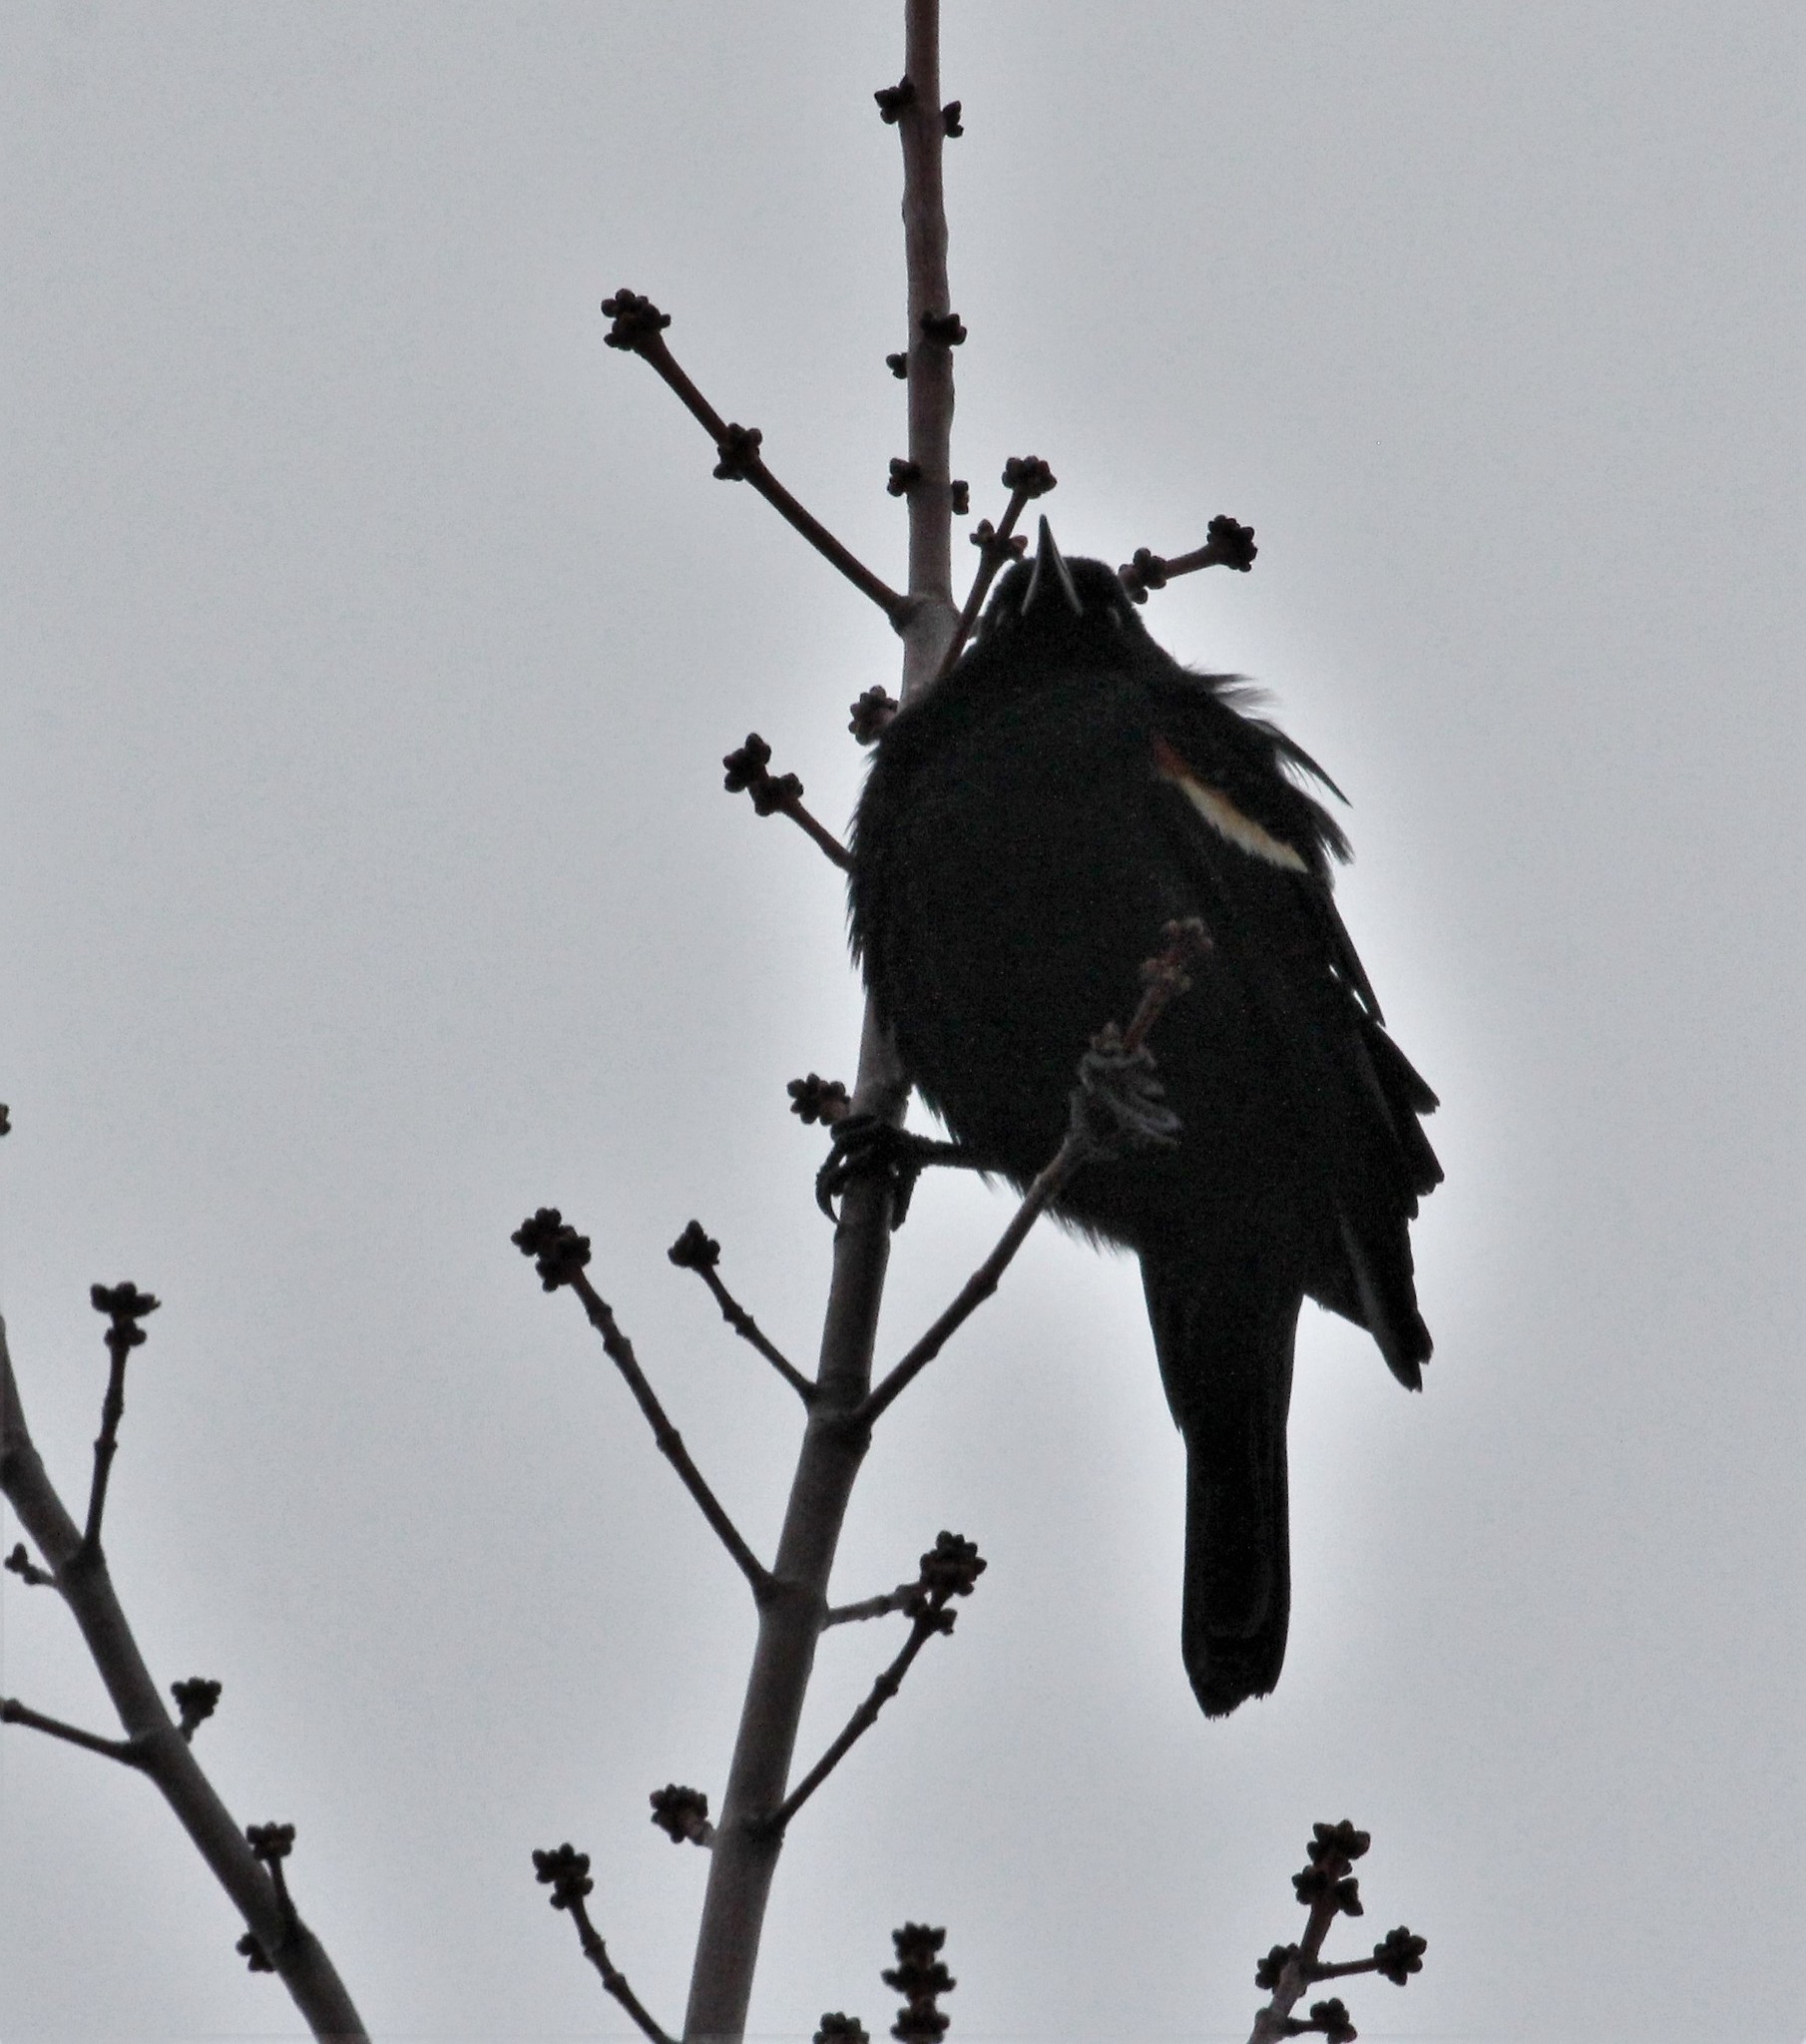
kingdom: Animalia
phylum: Chordata
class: Aves
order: Passeriformes
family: Icteridae
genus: Agelaius
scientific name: Agelaius phoeniceus
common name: Red-winged blackbird
